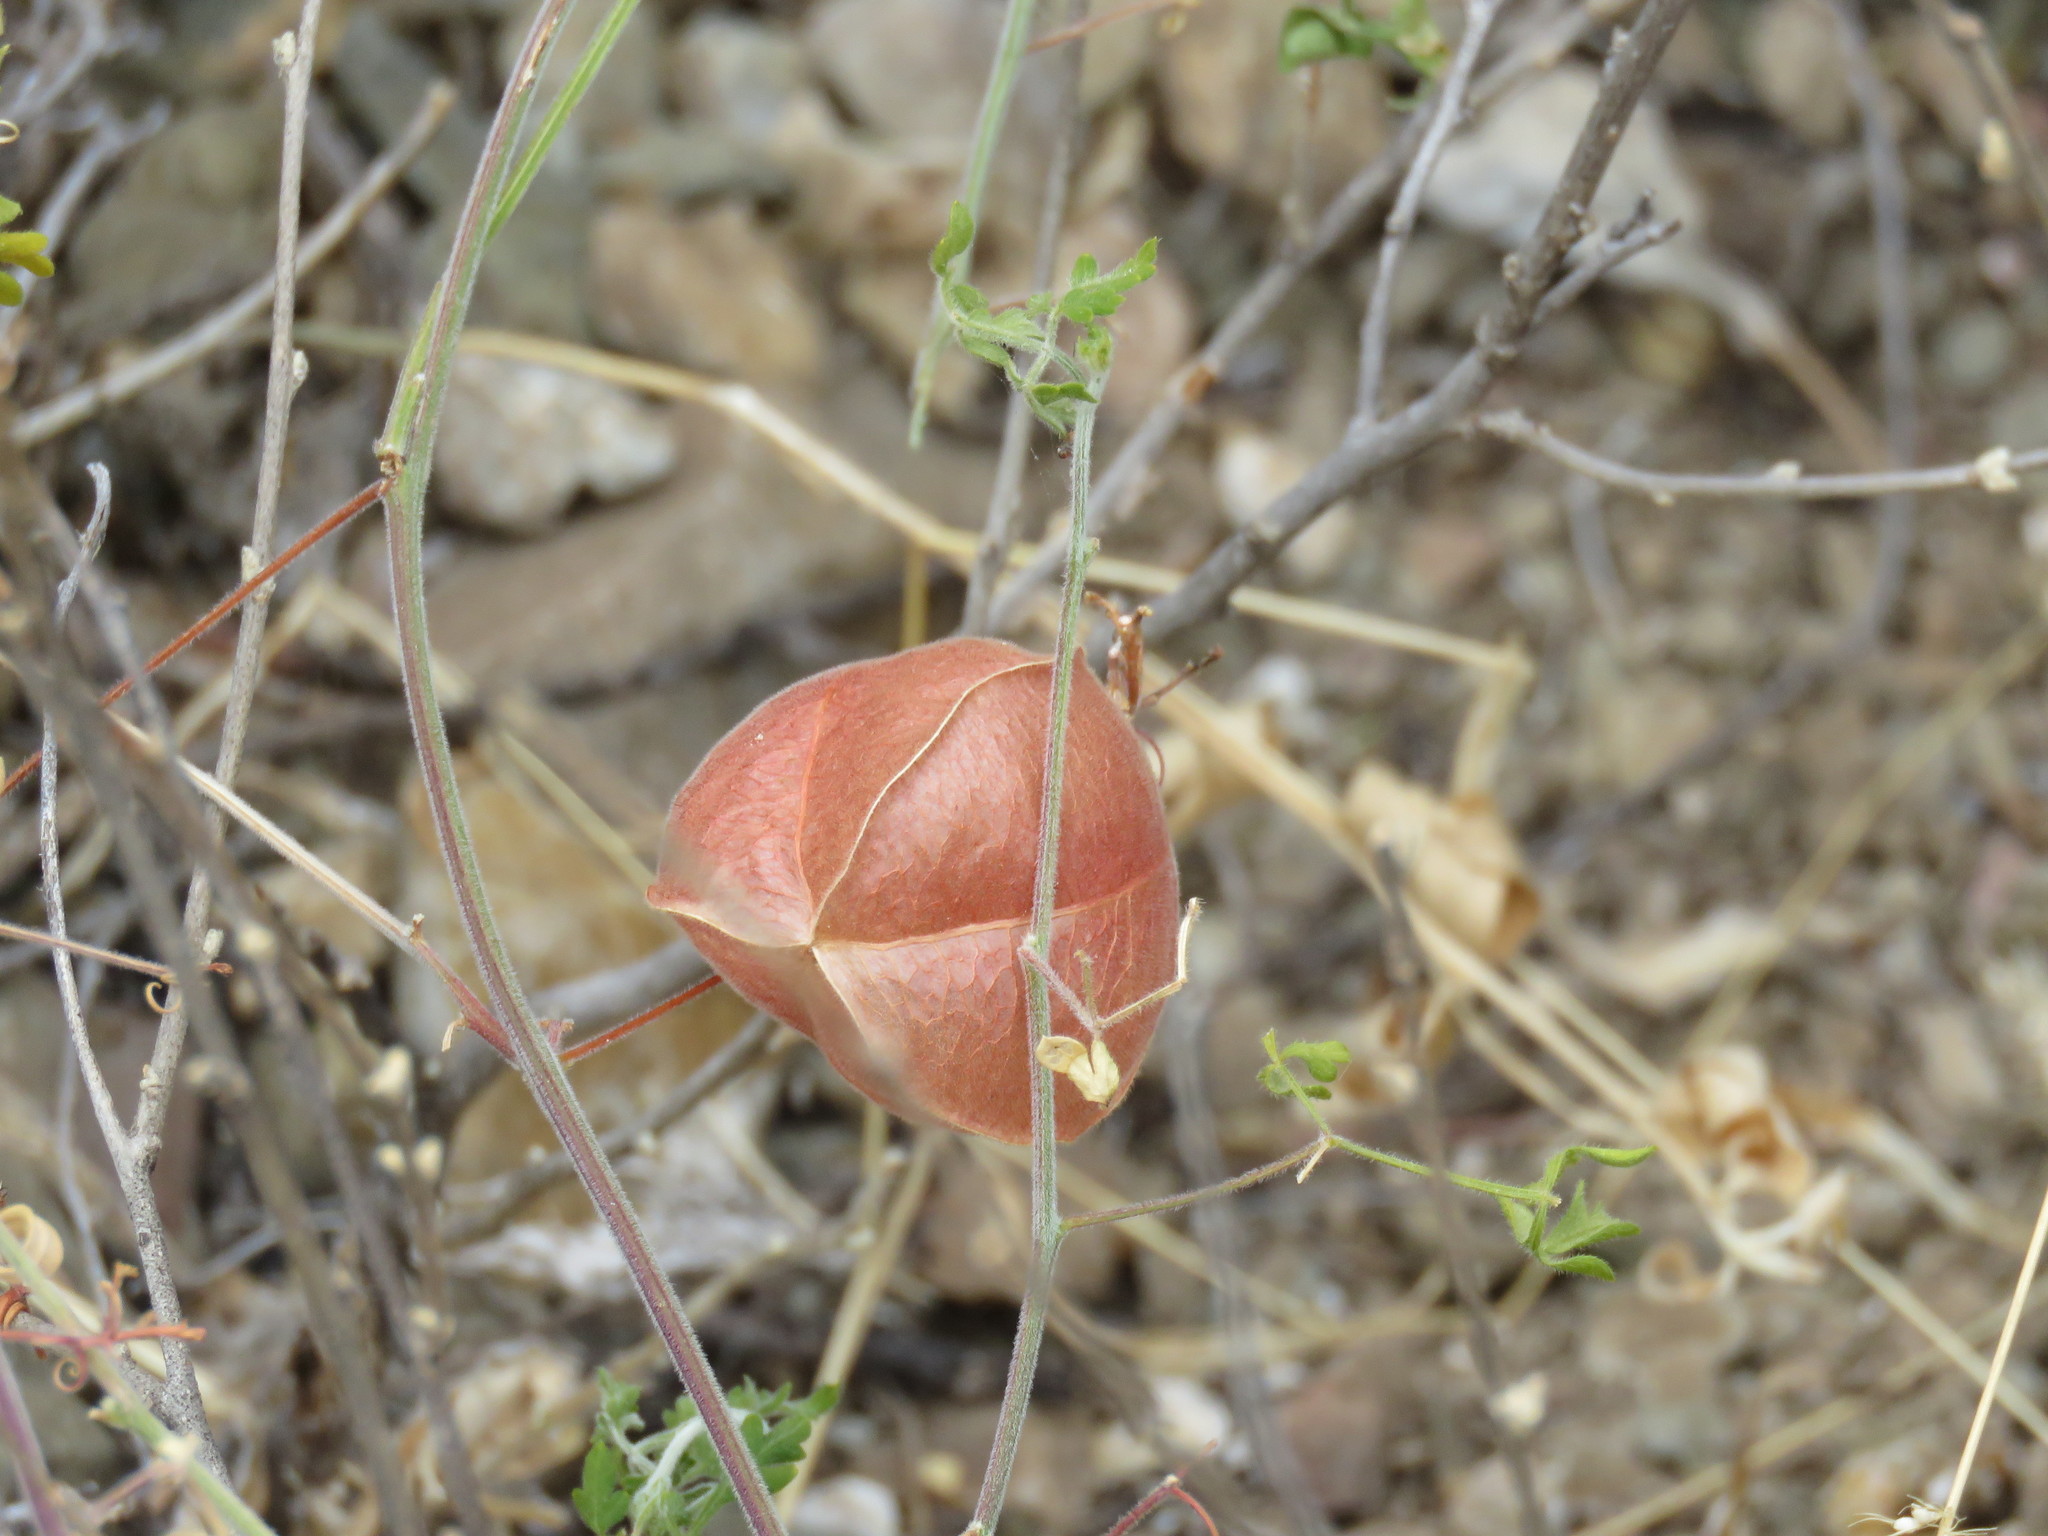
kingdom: Plantae
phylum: Tracheophyta
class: Magnoliopsida
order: Sapindales
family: Sapindaceae
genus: Cardiospermum
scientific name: Cardiospermum halicacabum
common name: Balloon vine
